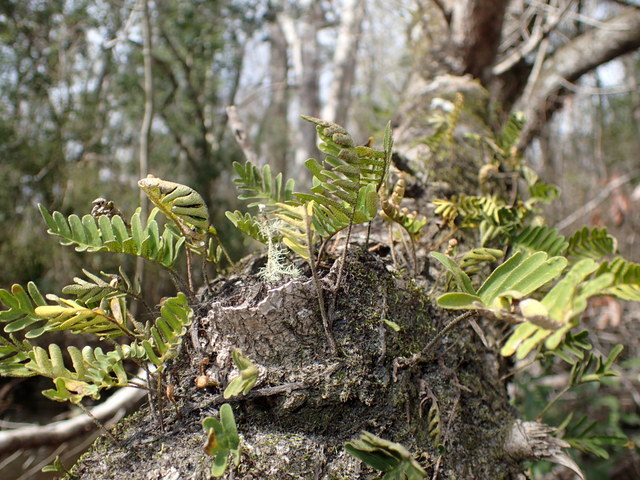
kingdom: Plantae
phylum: Tracheophyta
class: Polypodiopsida
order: Polypodiales
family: Polypodiaceae
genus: Pleopeltis
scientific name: Pleopeltis michauxiana
